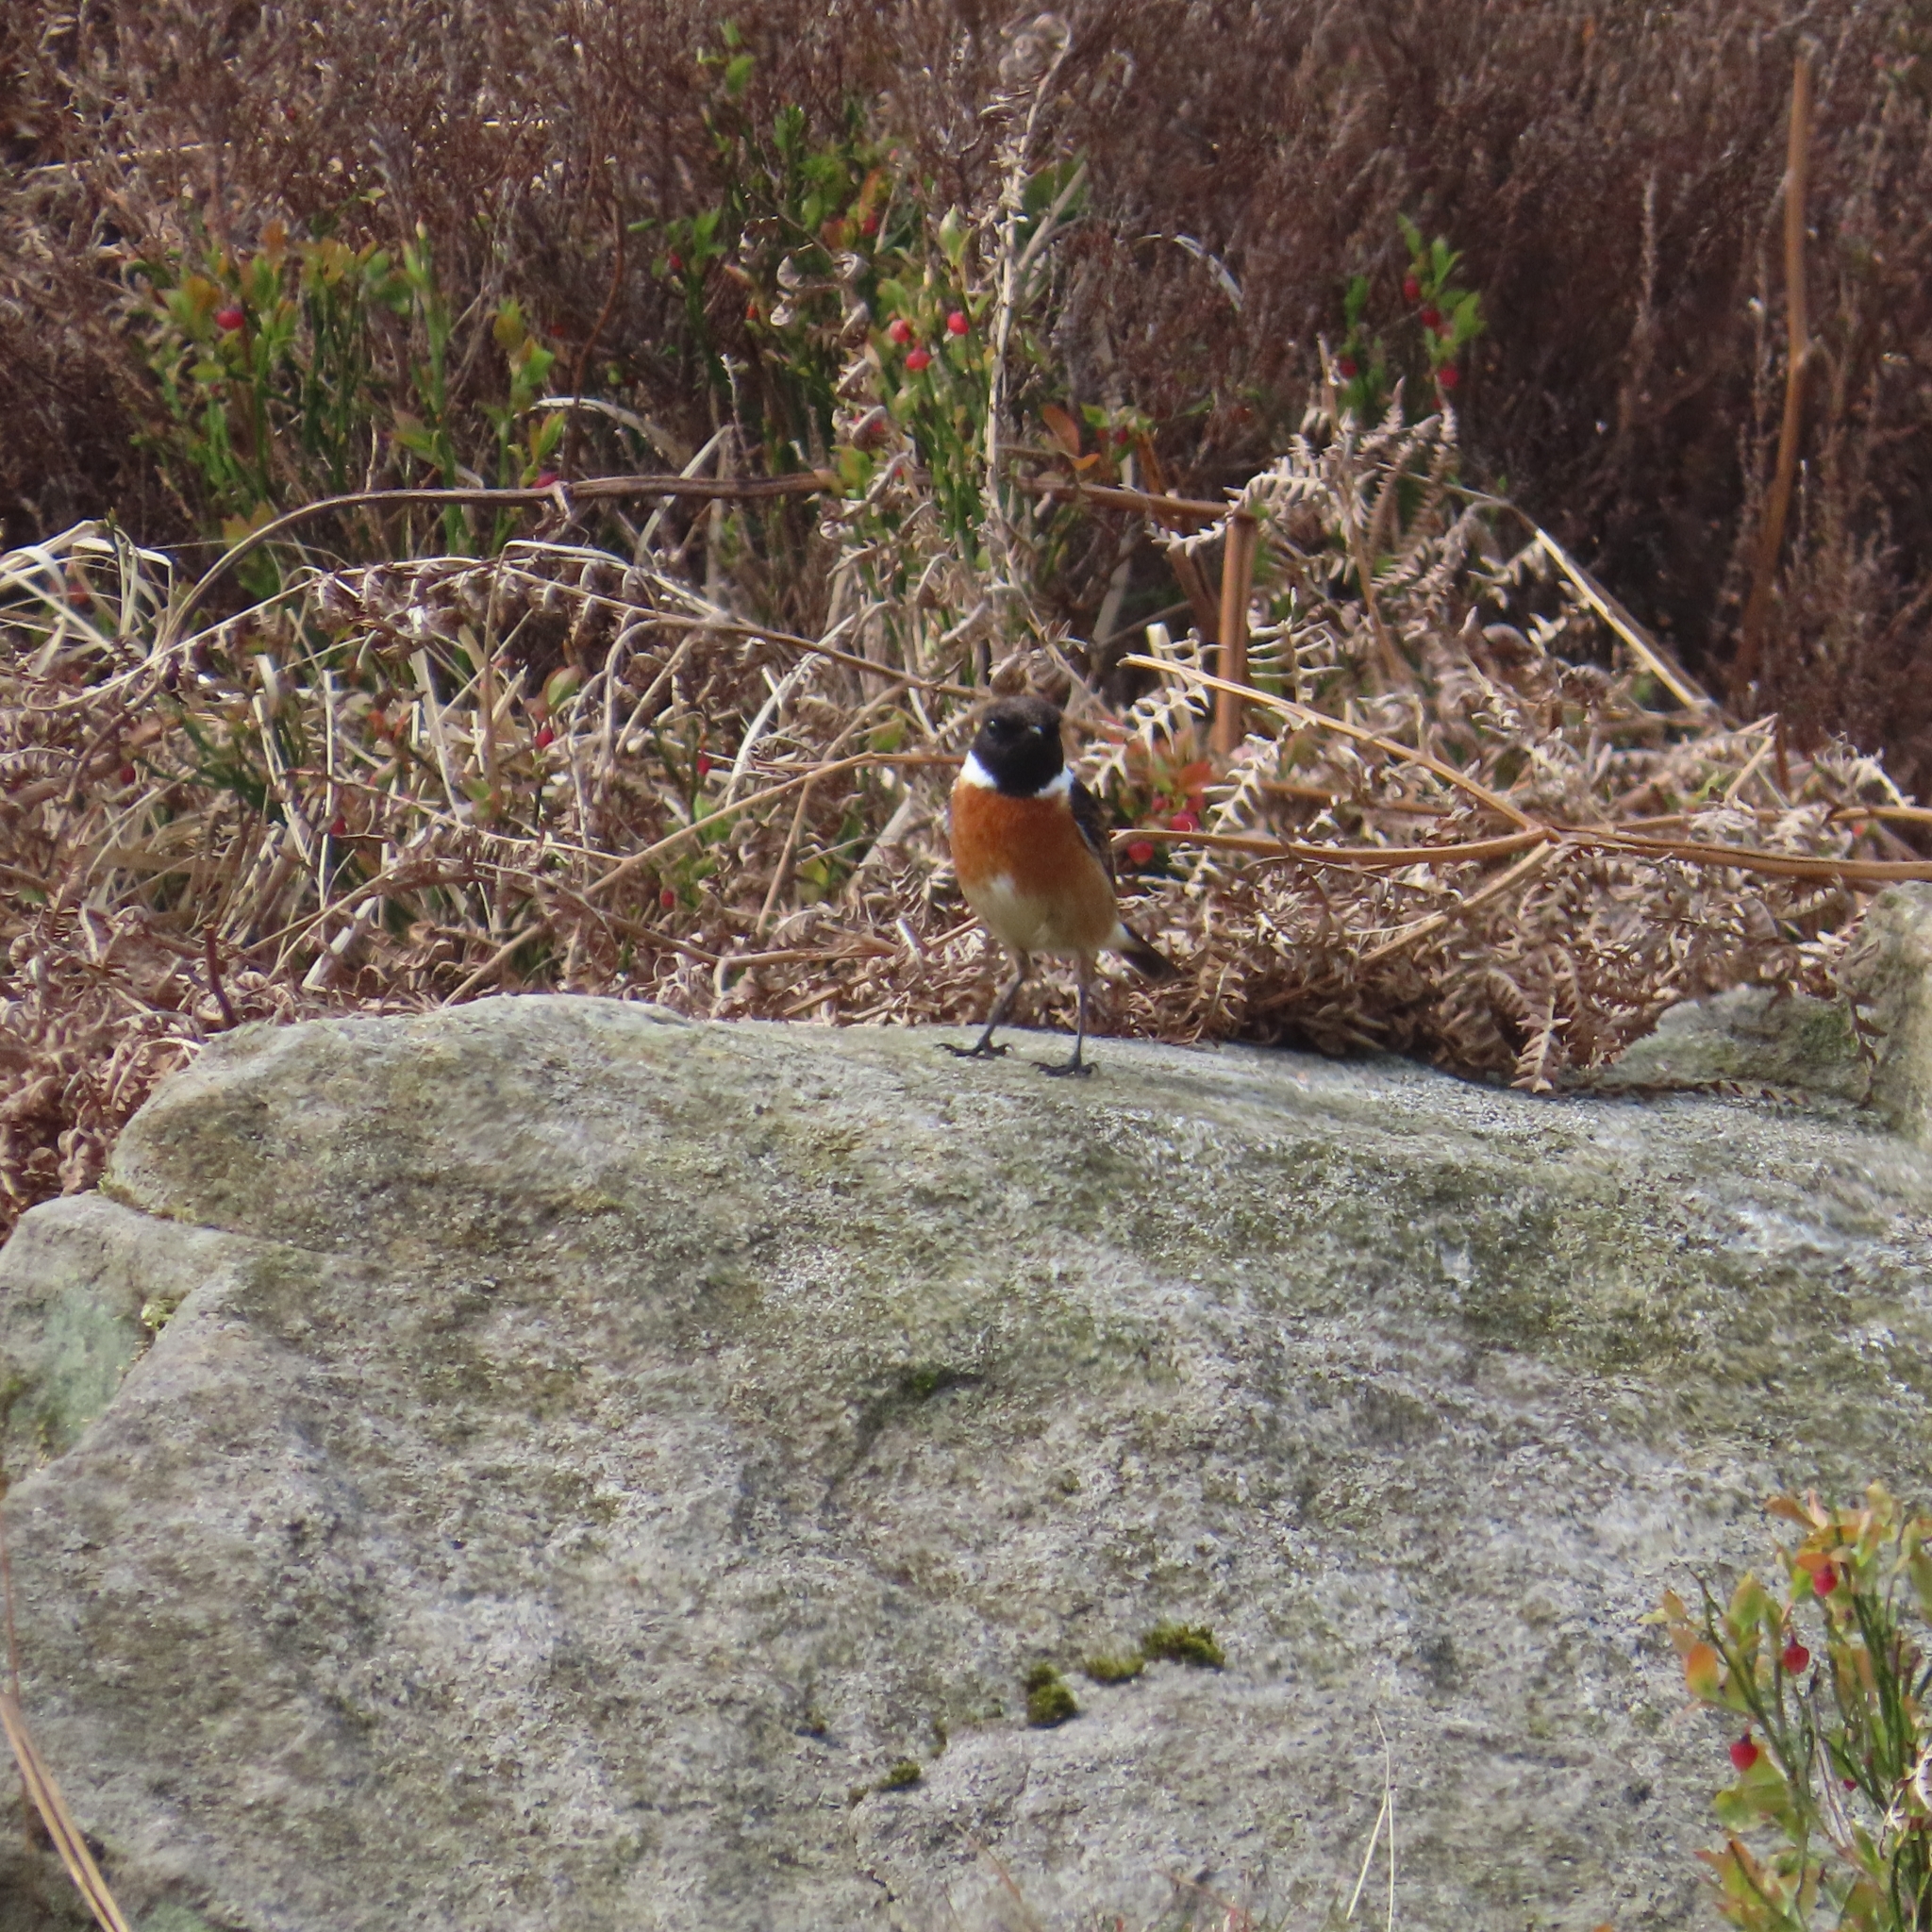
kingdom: Animalia
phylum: Chordata
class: Aves
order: Passeriformes
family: Muscicapidae
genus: Saxicola
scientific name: Saxicola rubicola
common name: European stonechat
